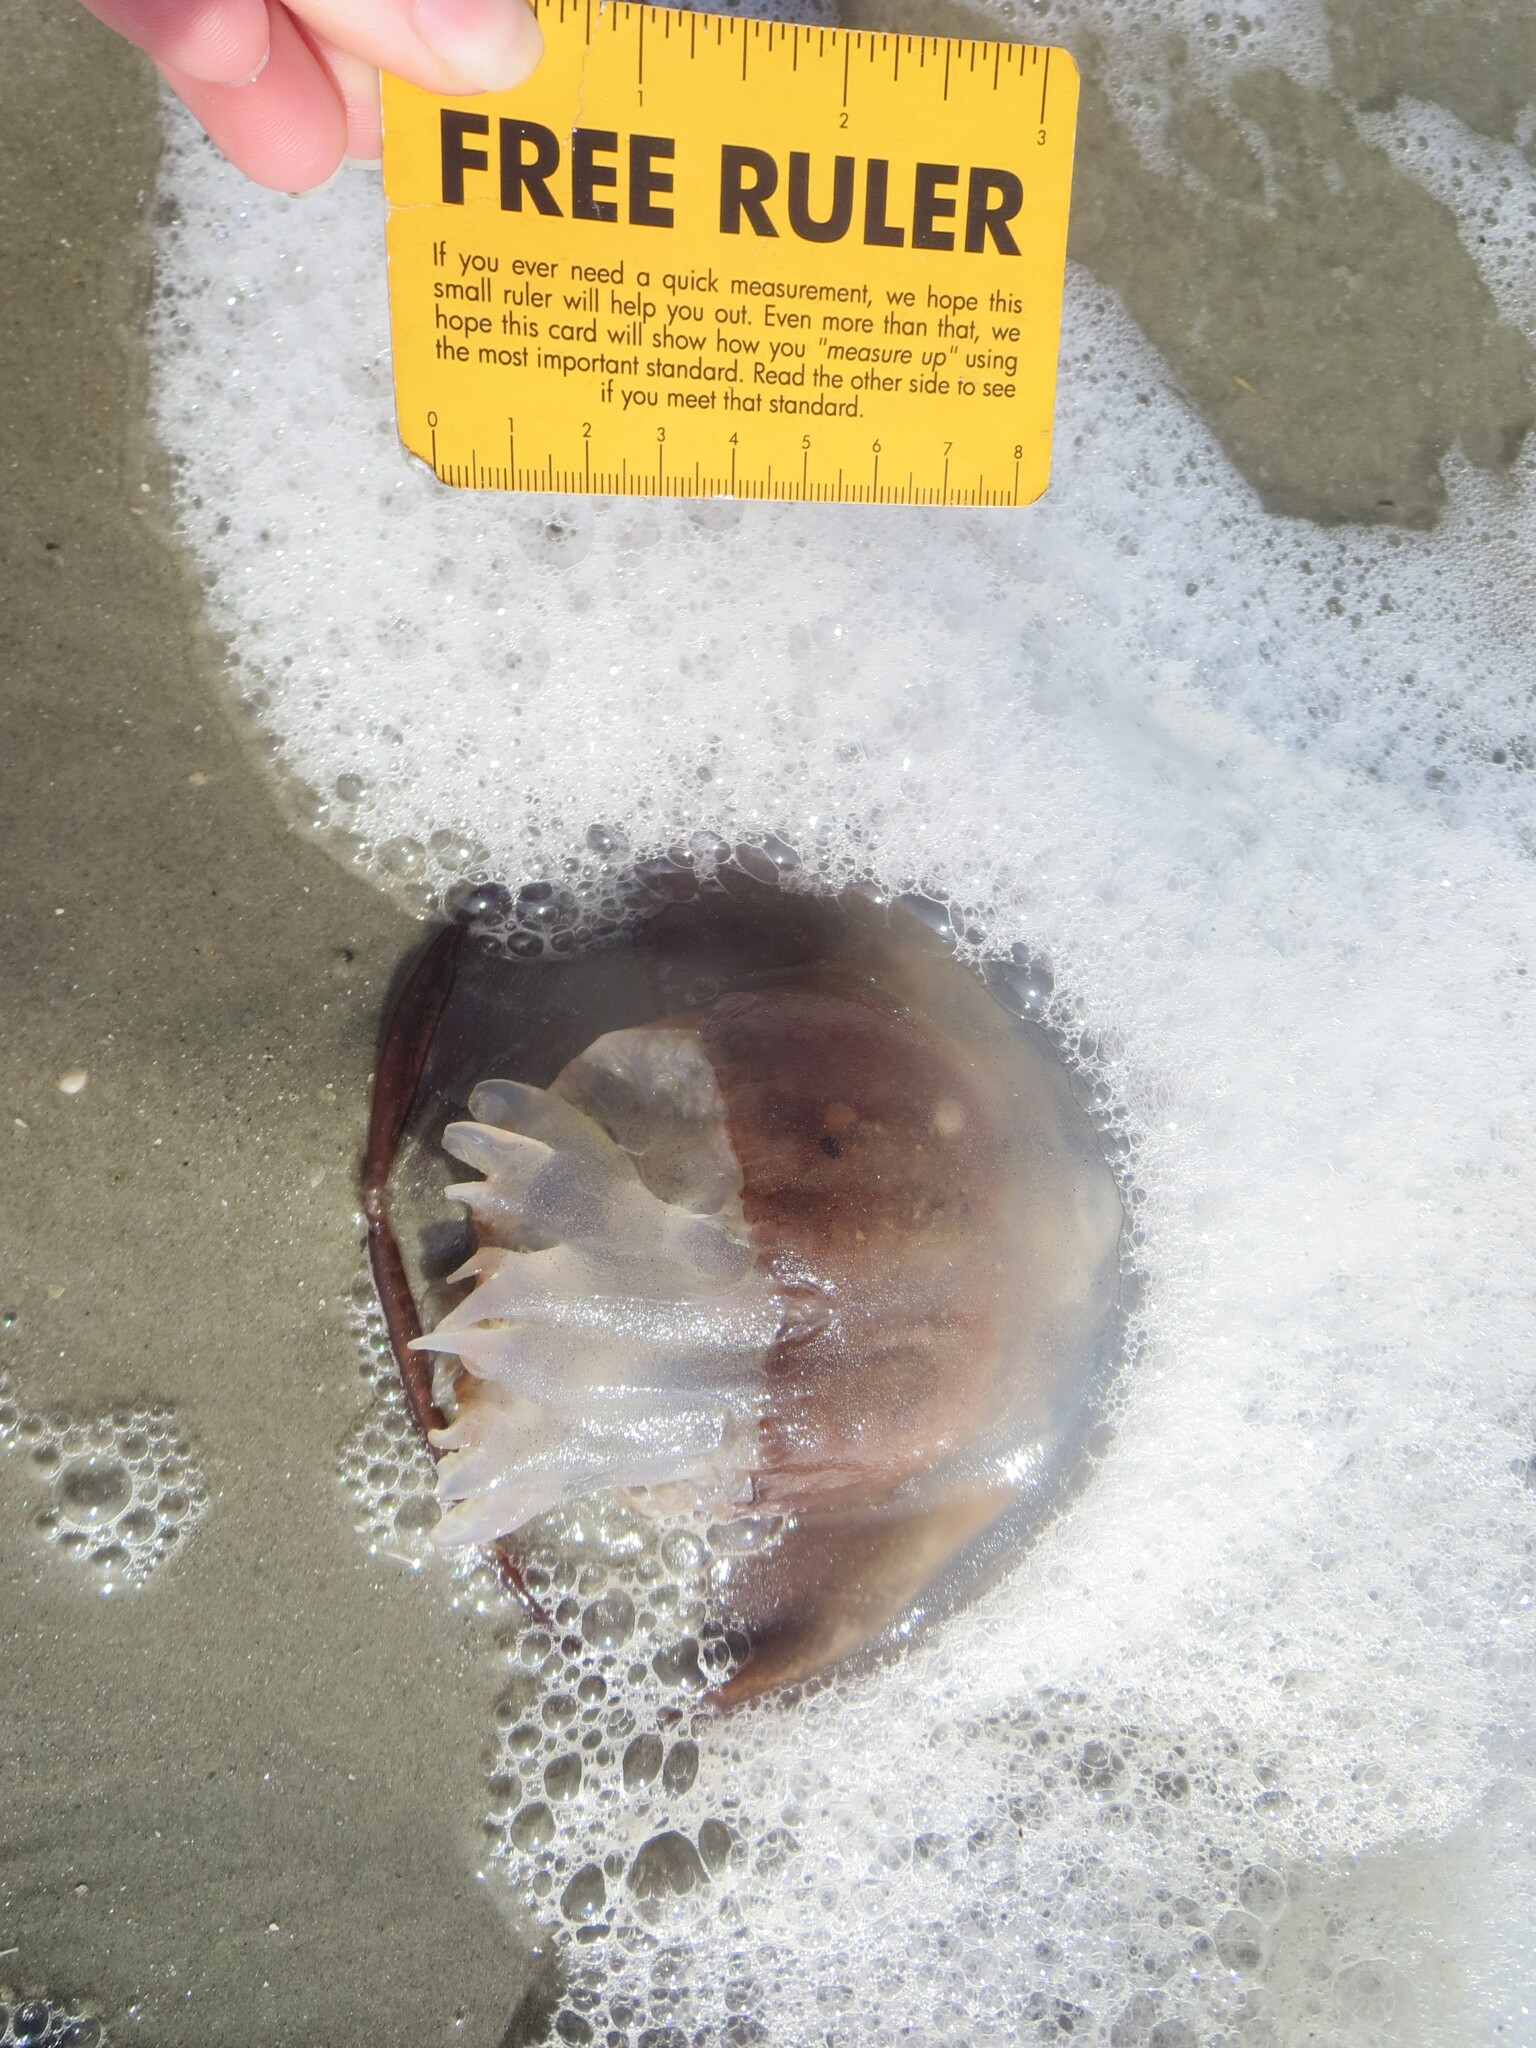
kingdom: Animalia
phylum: Cnidaria
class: Scyphozoa
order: Rhizostomeae
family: Stomolophidae
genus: Stomolophus
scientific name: Stomolophus meleagris
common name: Cabbagehead
